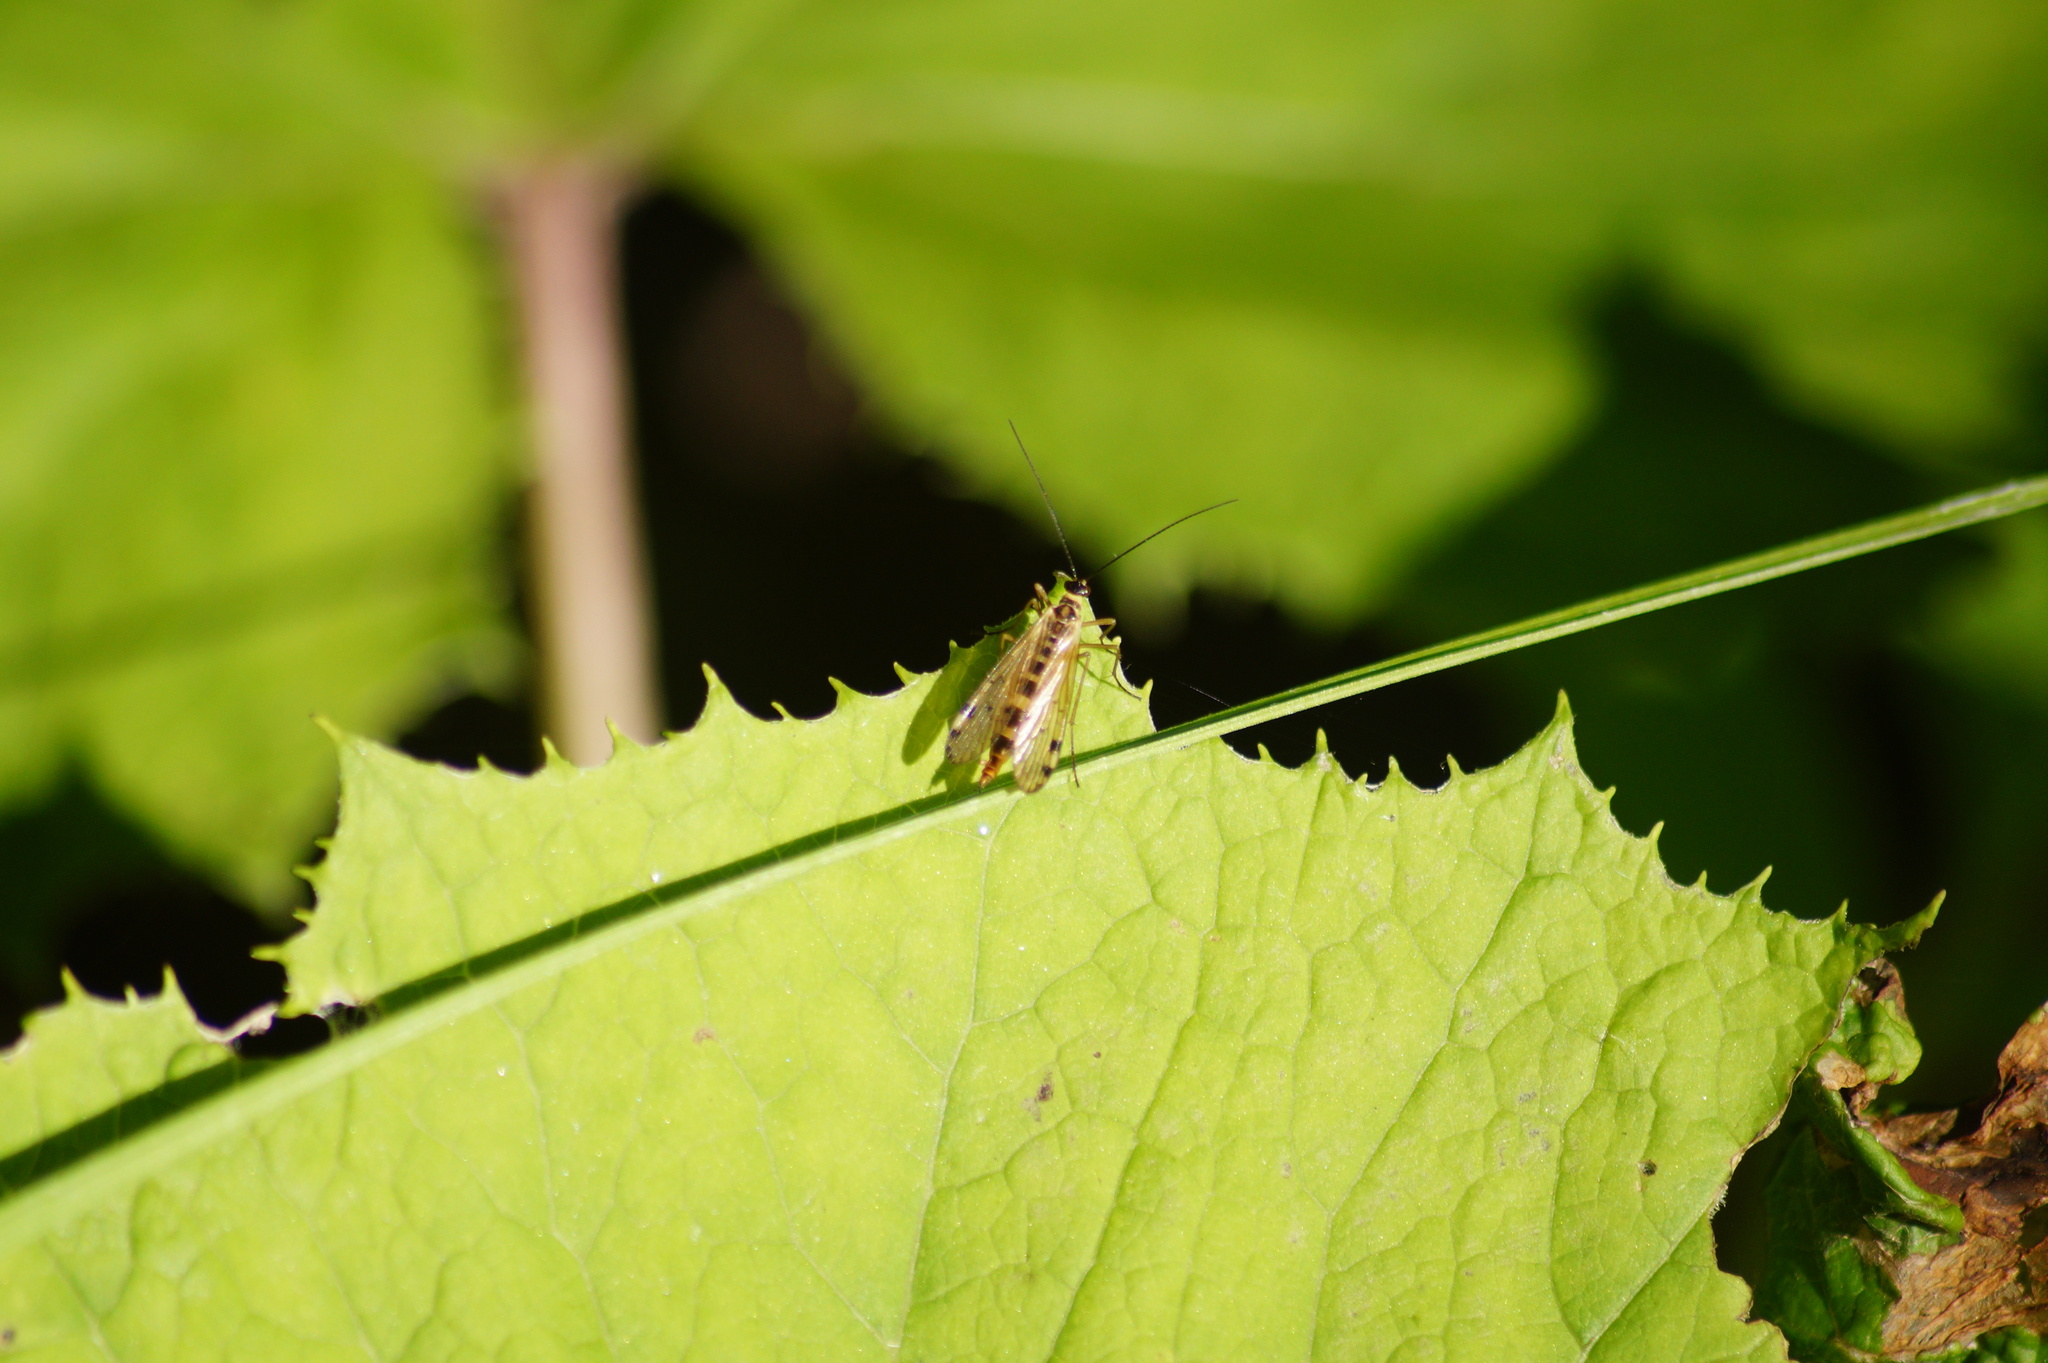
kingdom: Animalia
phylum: Arthropoda
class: Insecta
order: Mecoptera
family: Panorpidae
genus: Panorpa
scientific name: Panorpa alpina
